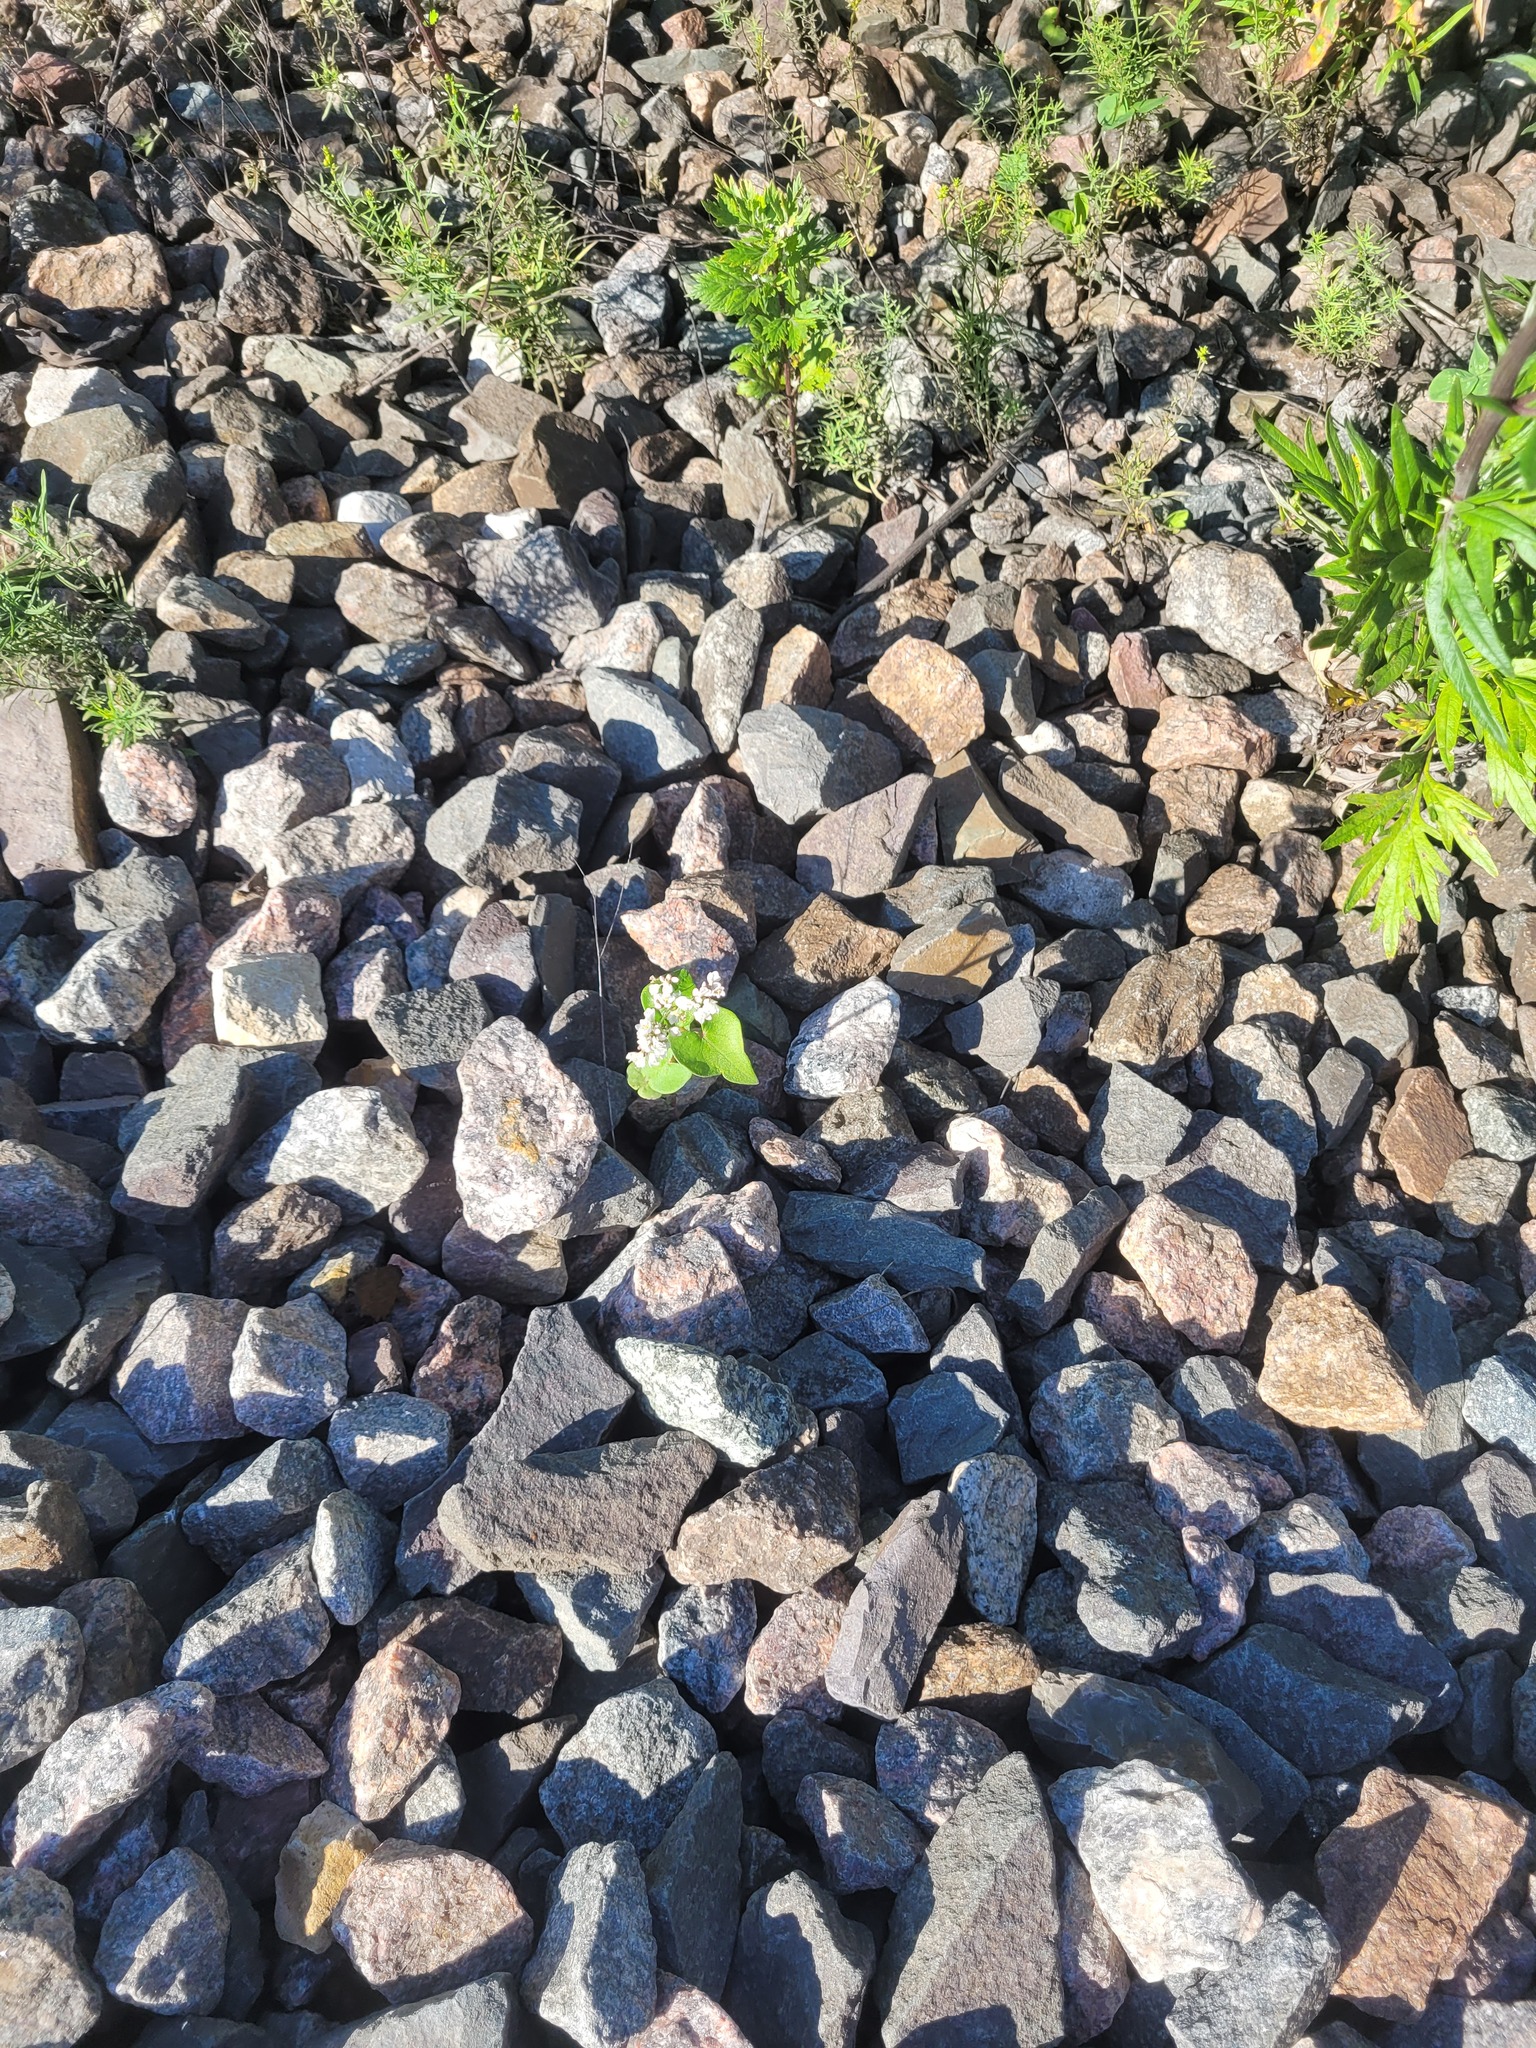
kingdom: Plantae
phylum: Tracheophyta
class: Magnoliopsida
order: Caryophyllales
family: Polygonaceae
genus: Fagopyrum
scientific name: Fagopyrum esculentum
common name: Buckwheat
